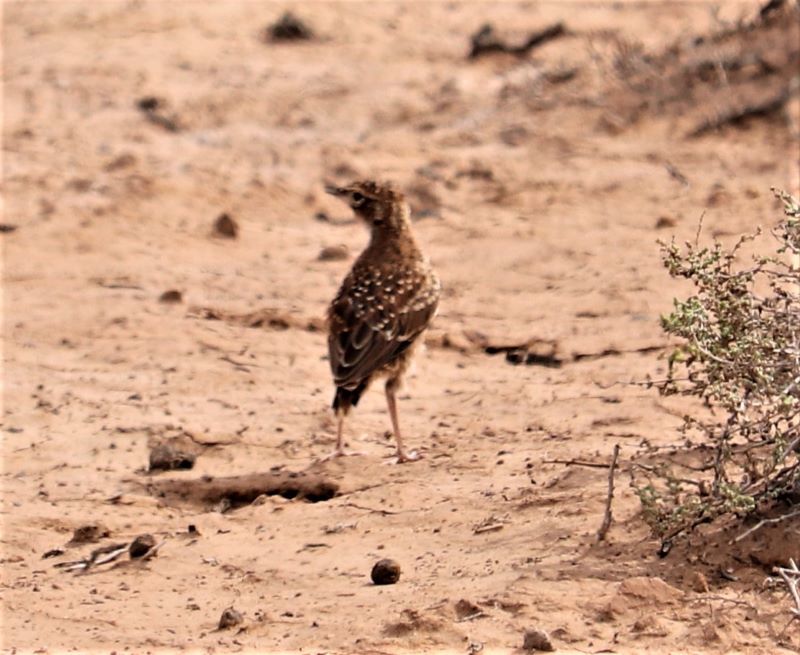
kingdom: Animalia
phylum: Chordata
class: Aves
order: Passeriformes
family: Alaudidae
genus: Chersomanes
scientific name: Chersomanes albofasciata
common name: Spike-heeled lark
